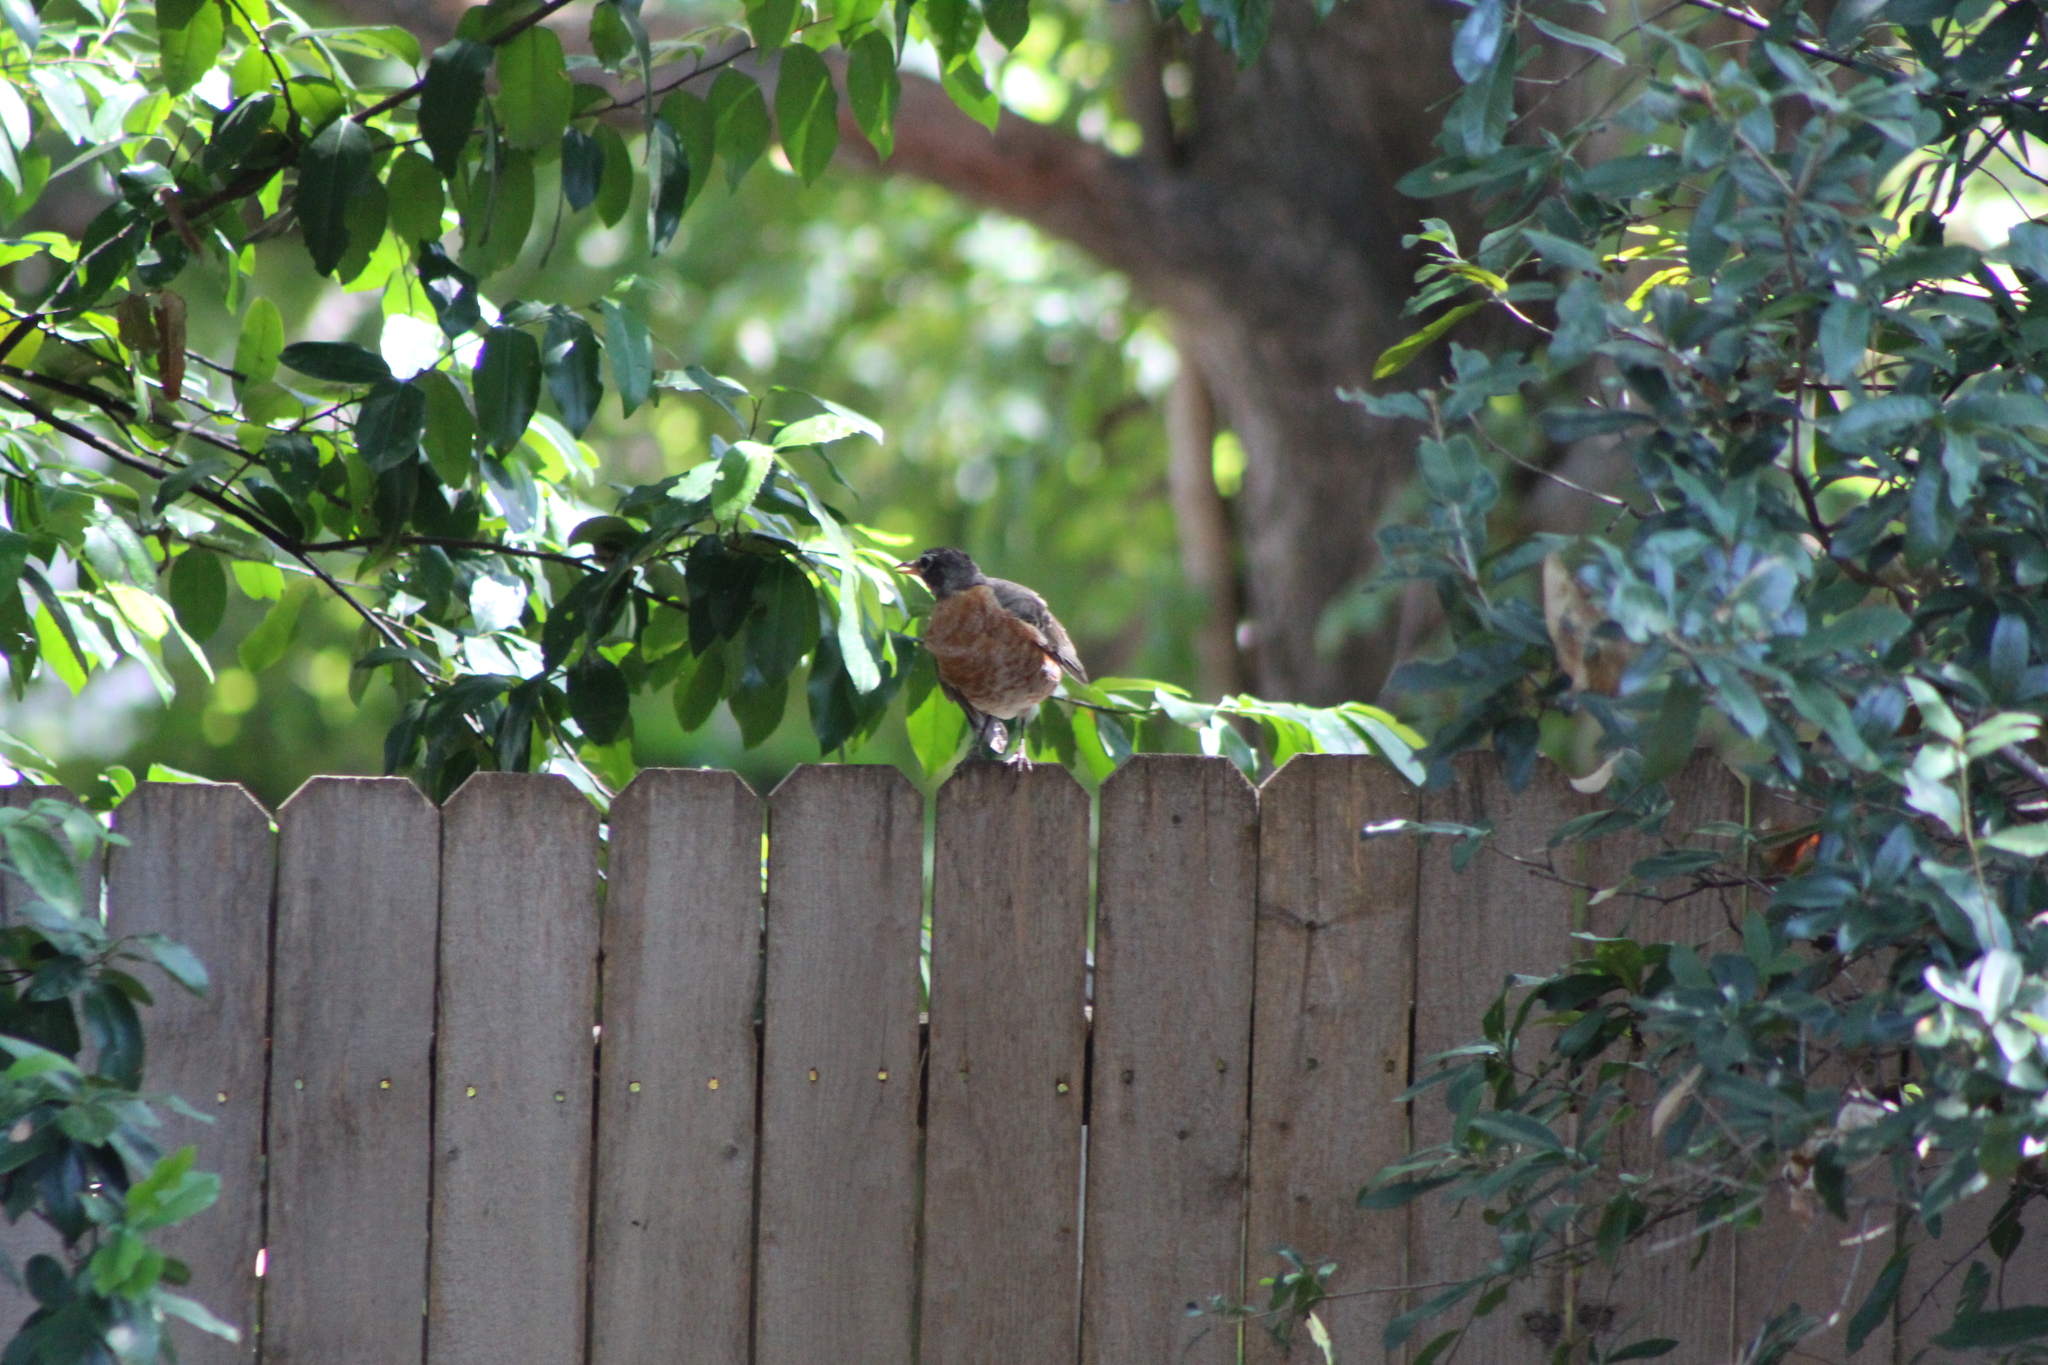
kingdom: Animalia
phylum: Chordata
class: Aves
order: Passeriformes
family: Turdidae
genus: Turdus
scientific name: Turdus migratorius
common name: American robin
